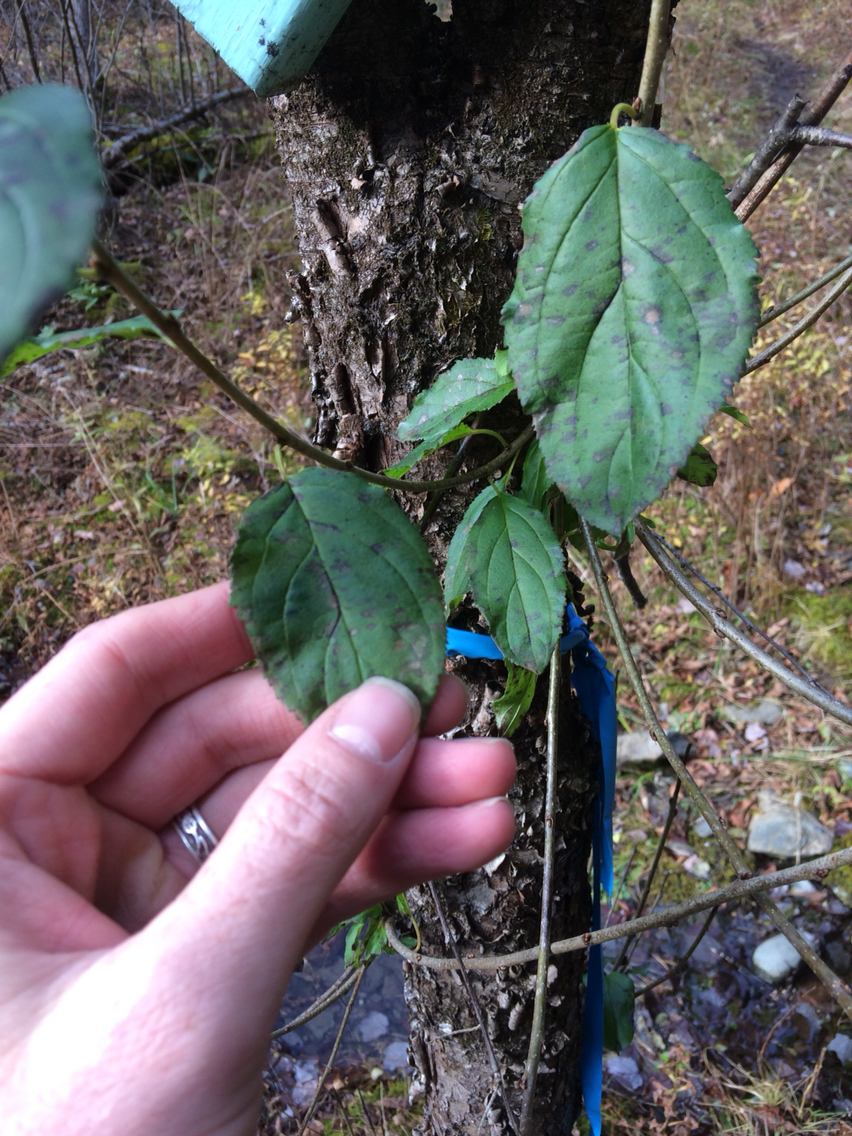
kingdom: Plantae
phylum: Tracheophyta
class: Magnoliopsida
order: Rosales
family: Rhamnaceae
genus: Rhamnus
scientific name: Rhamnus cathartica
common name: Common buckthorn
